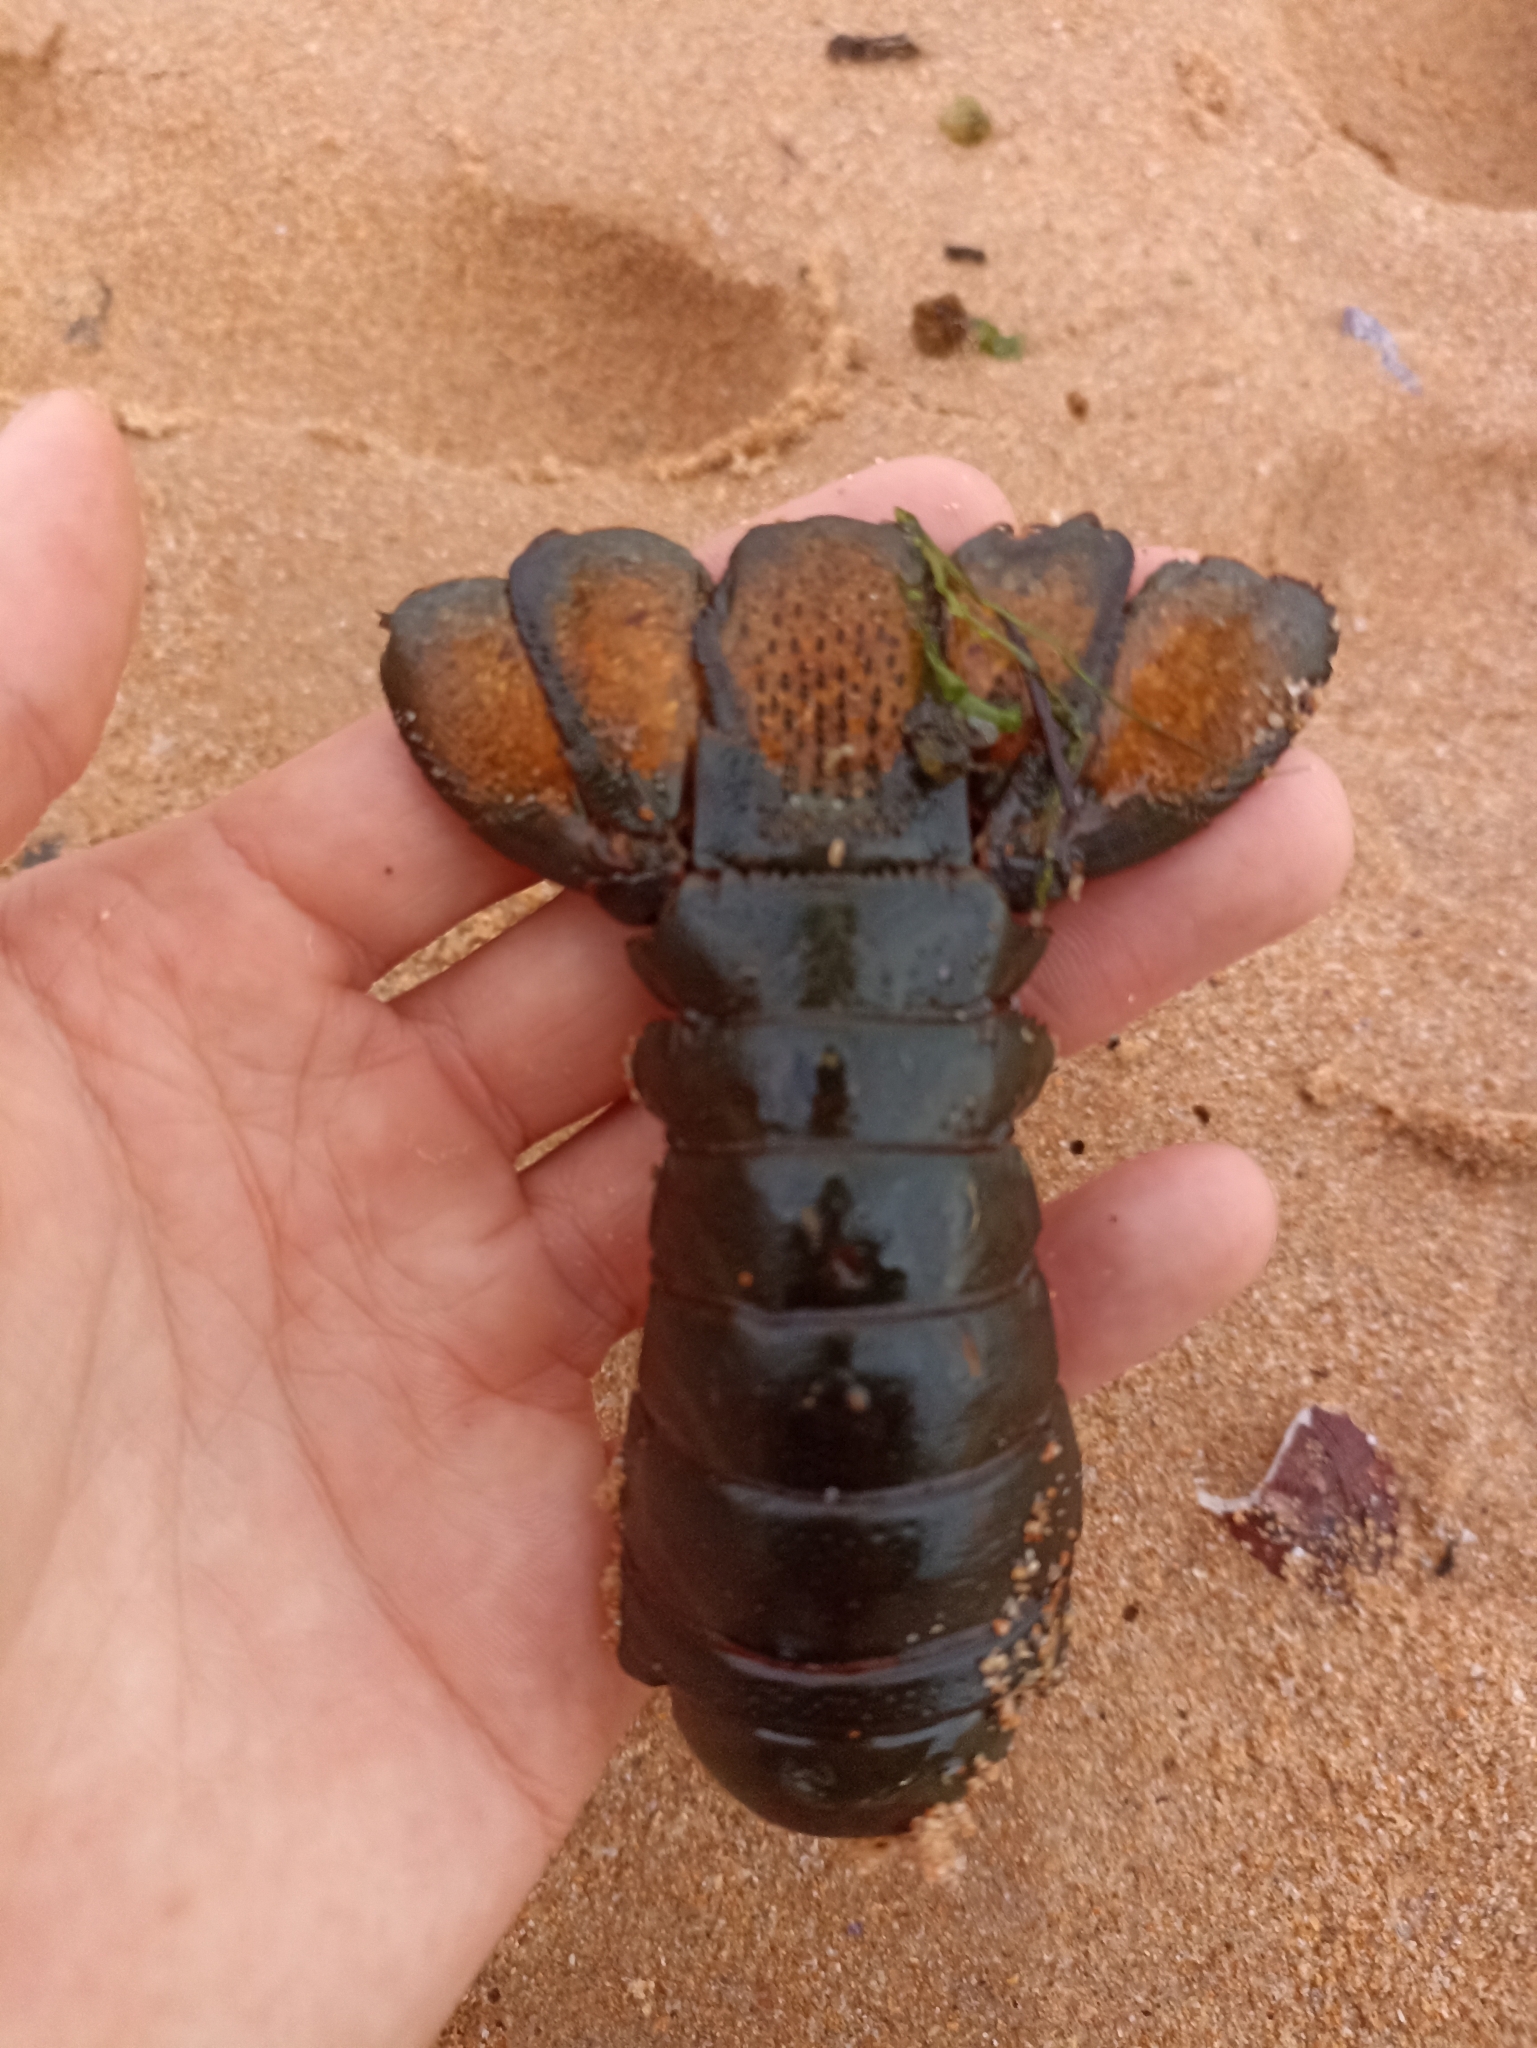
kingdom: Animalia
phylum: Arthropoda
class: Malacostraca
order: Decapoda
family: Palinuridae
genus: Sagmariasus
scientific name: Sagmariasus verreauxi
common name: Green rock lobster
